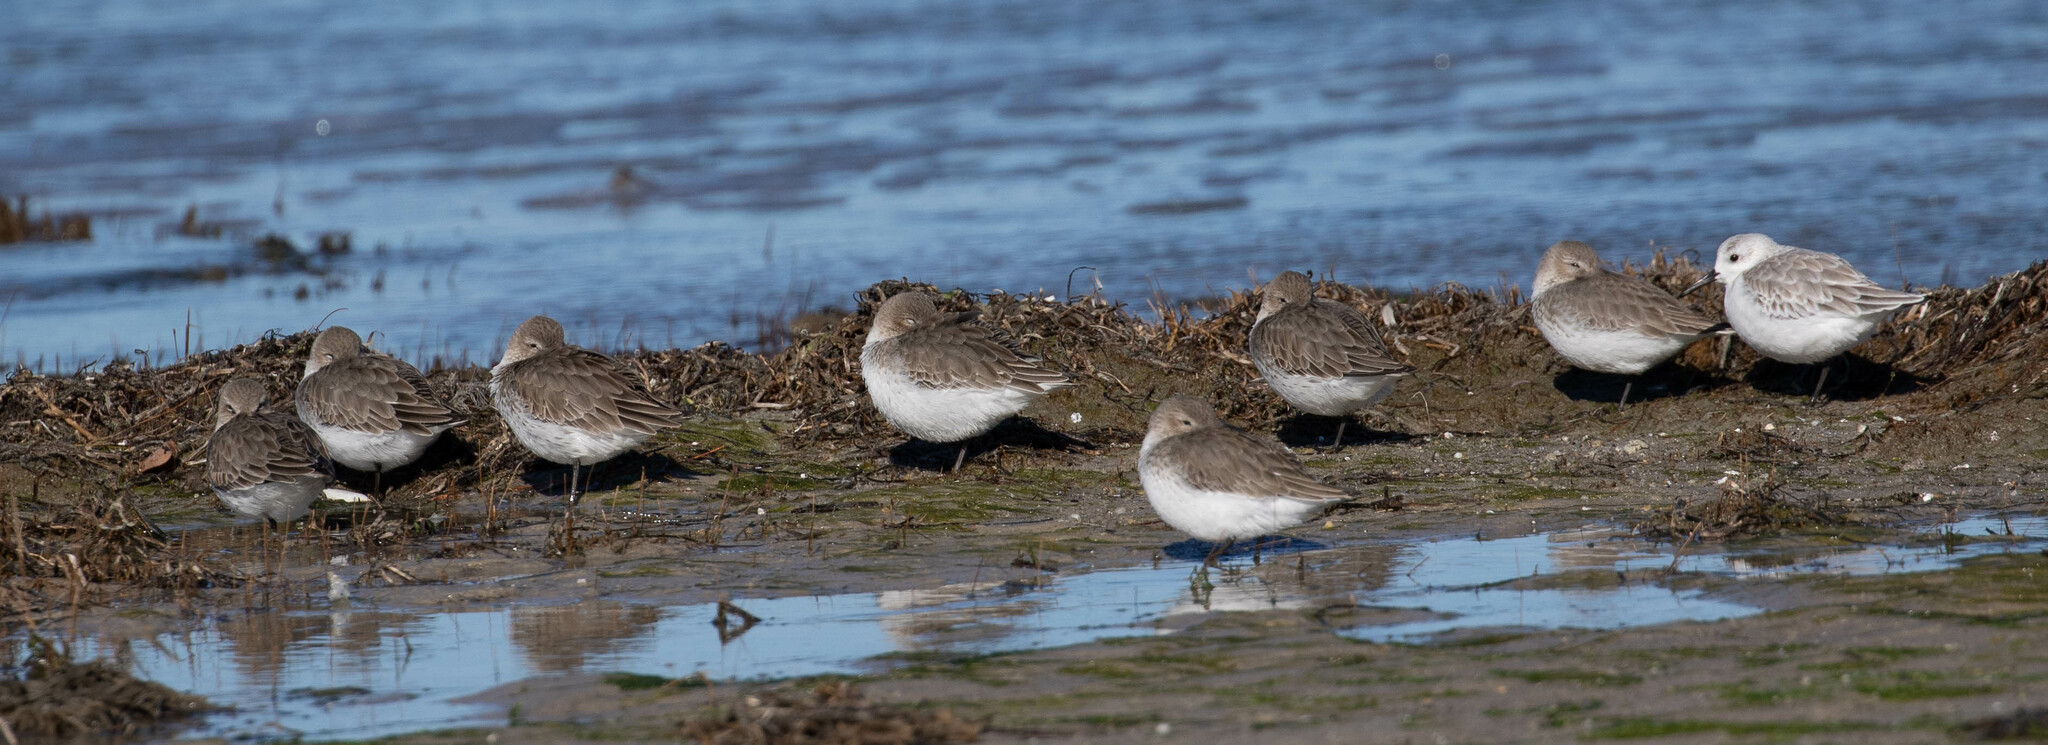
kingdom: Animalia
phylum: Chordata
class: Aves
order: Charadriiformes
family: Scolopacidae
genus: Calidris
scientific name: Calidris alpina
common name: Dunlin
